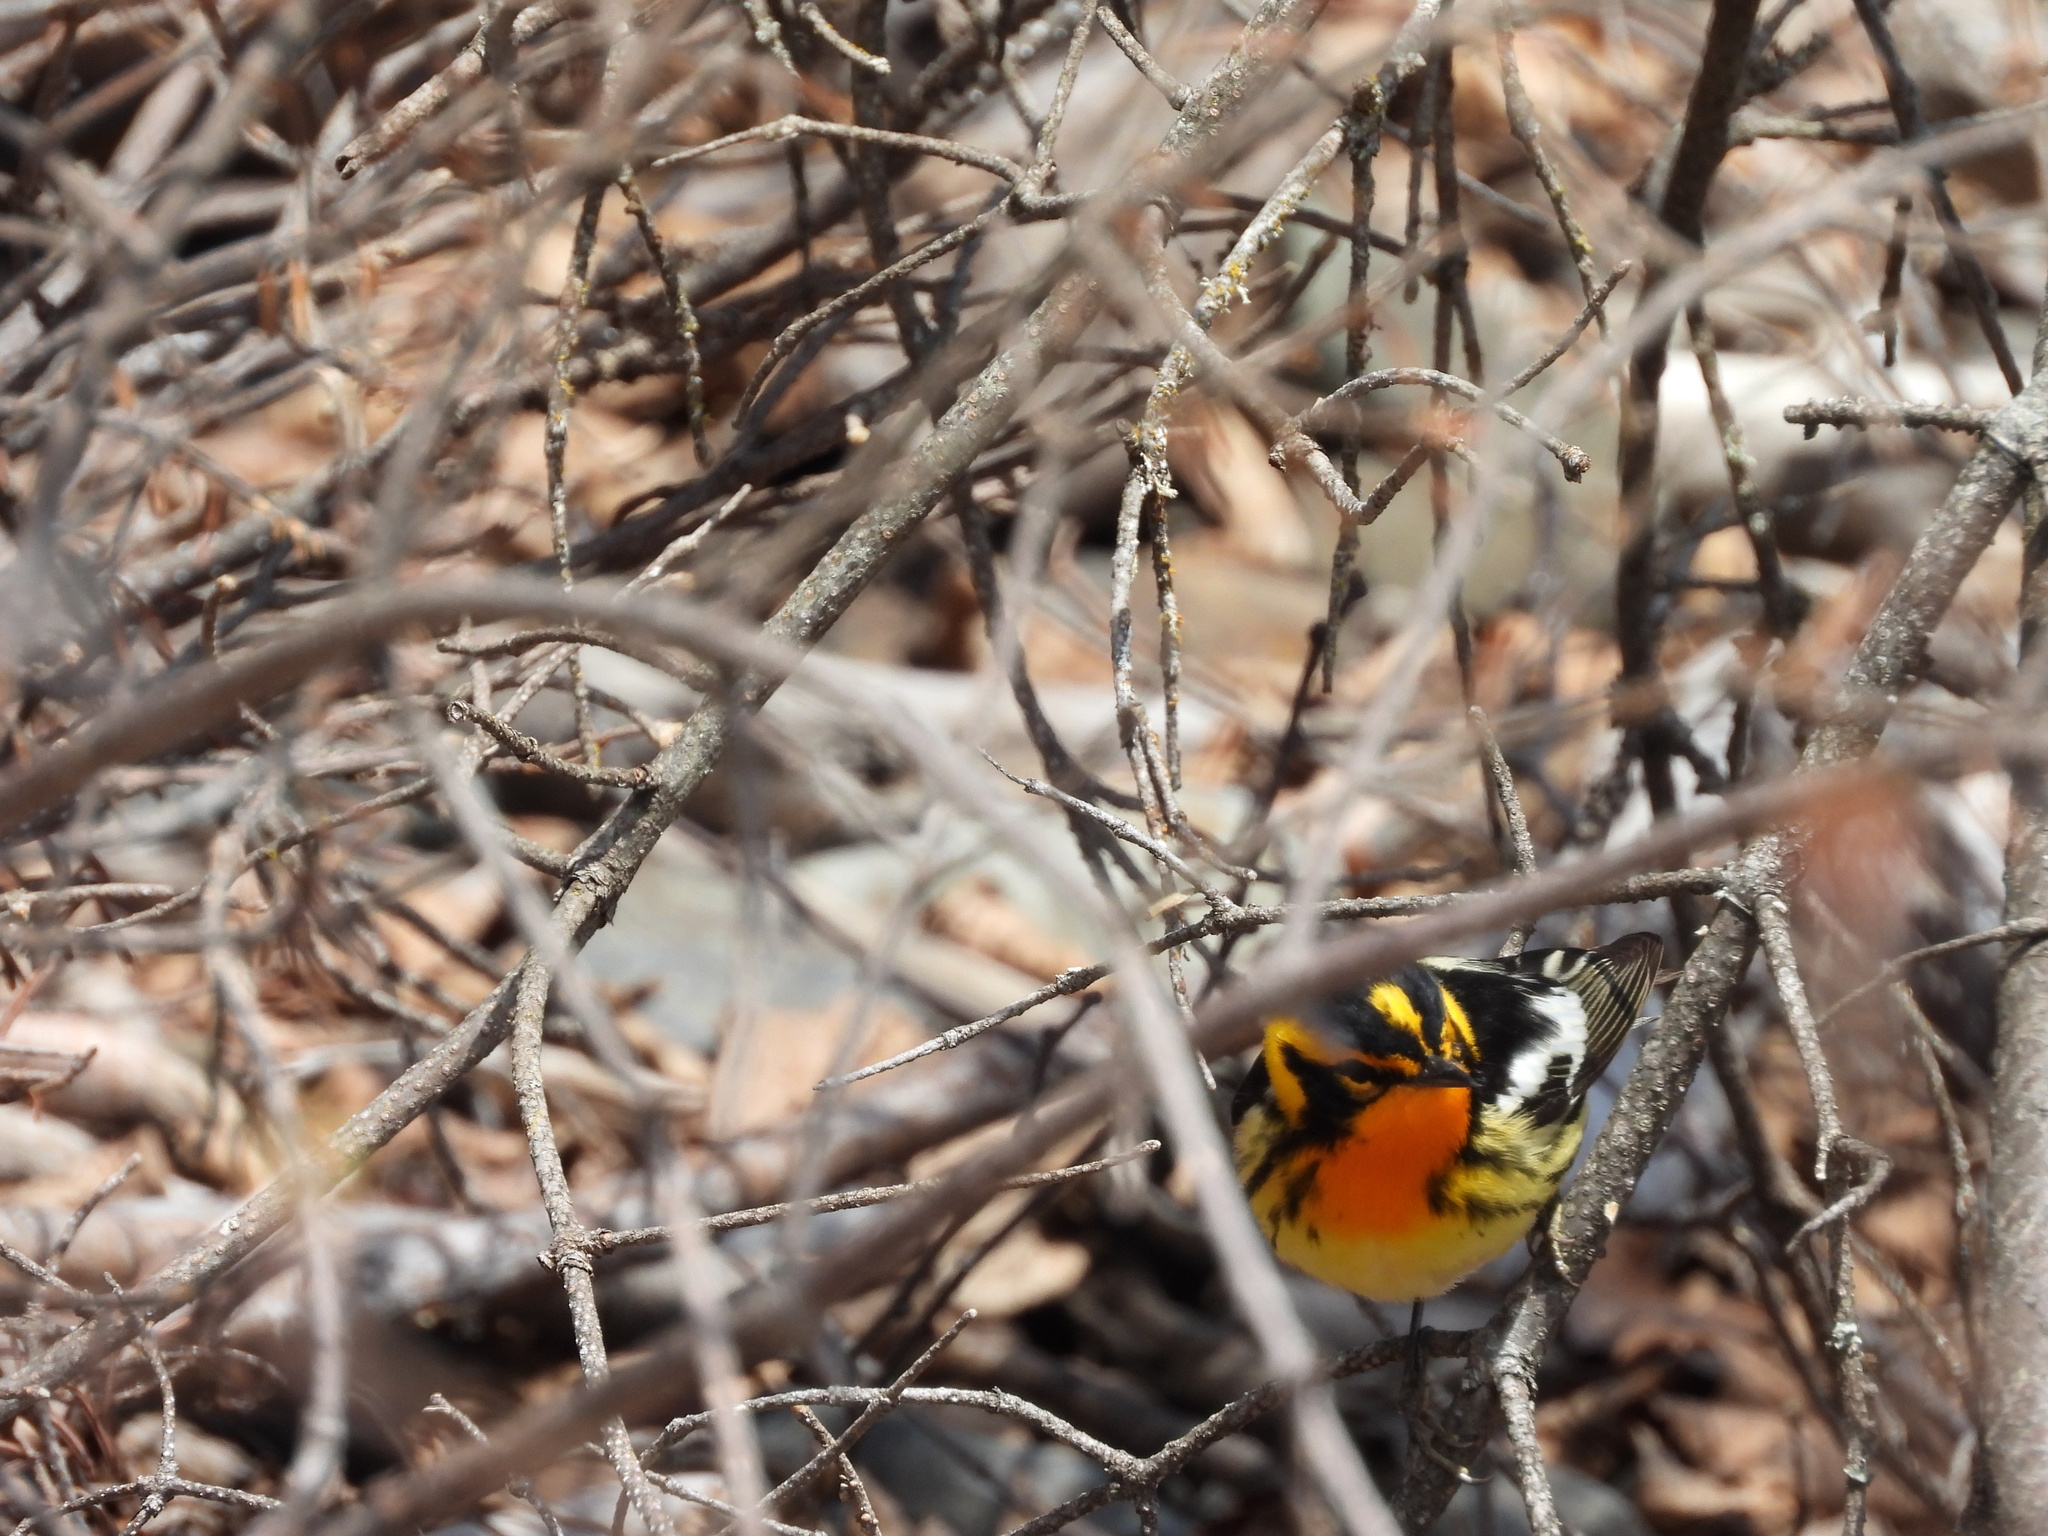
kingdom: Animalia
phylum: Chordata
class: Aves
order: Passeriformes
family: Parulidae
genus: Setophaga
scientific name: Setophaga fusca
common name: Blackburnian warbler
